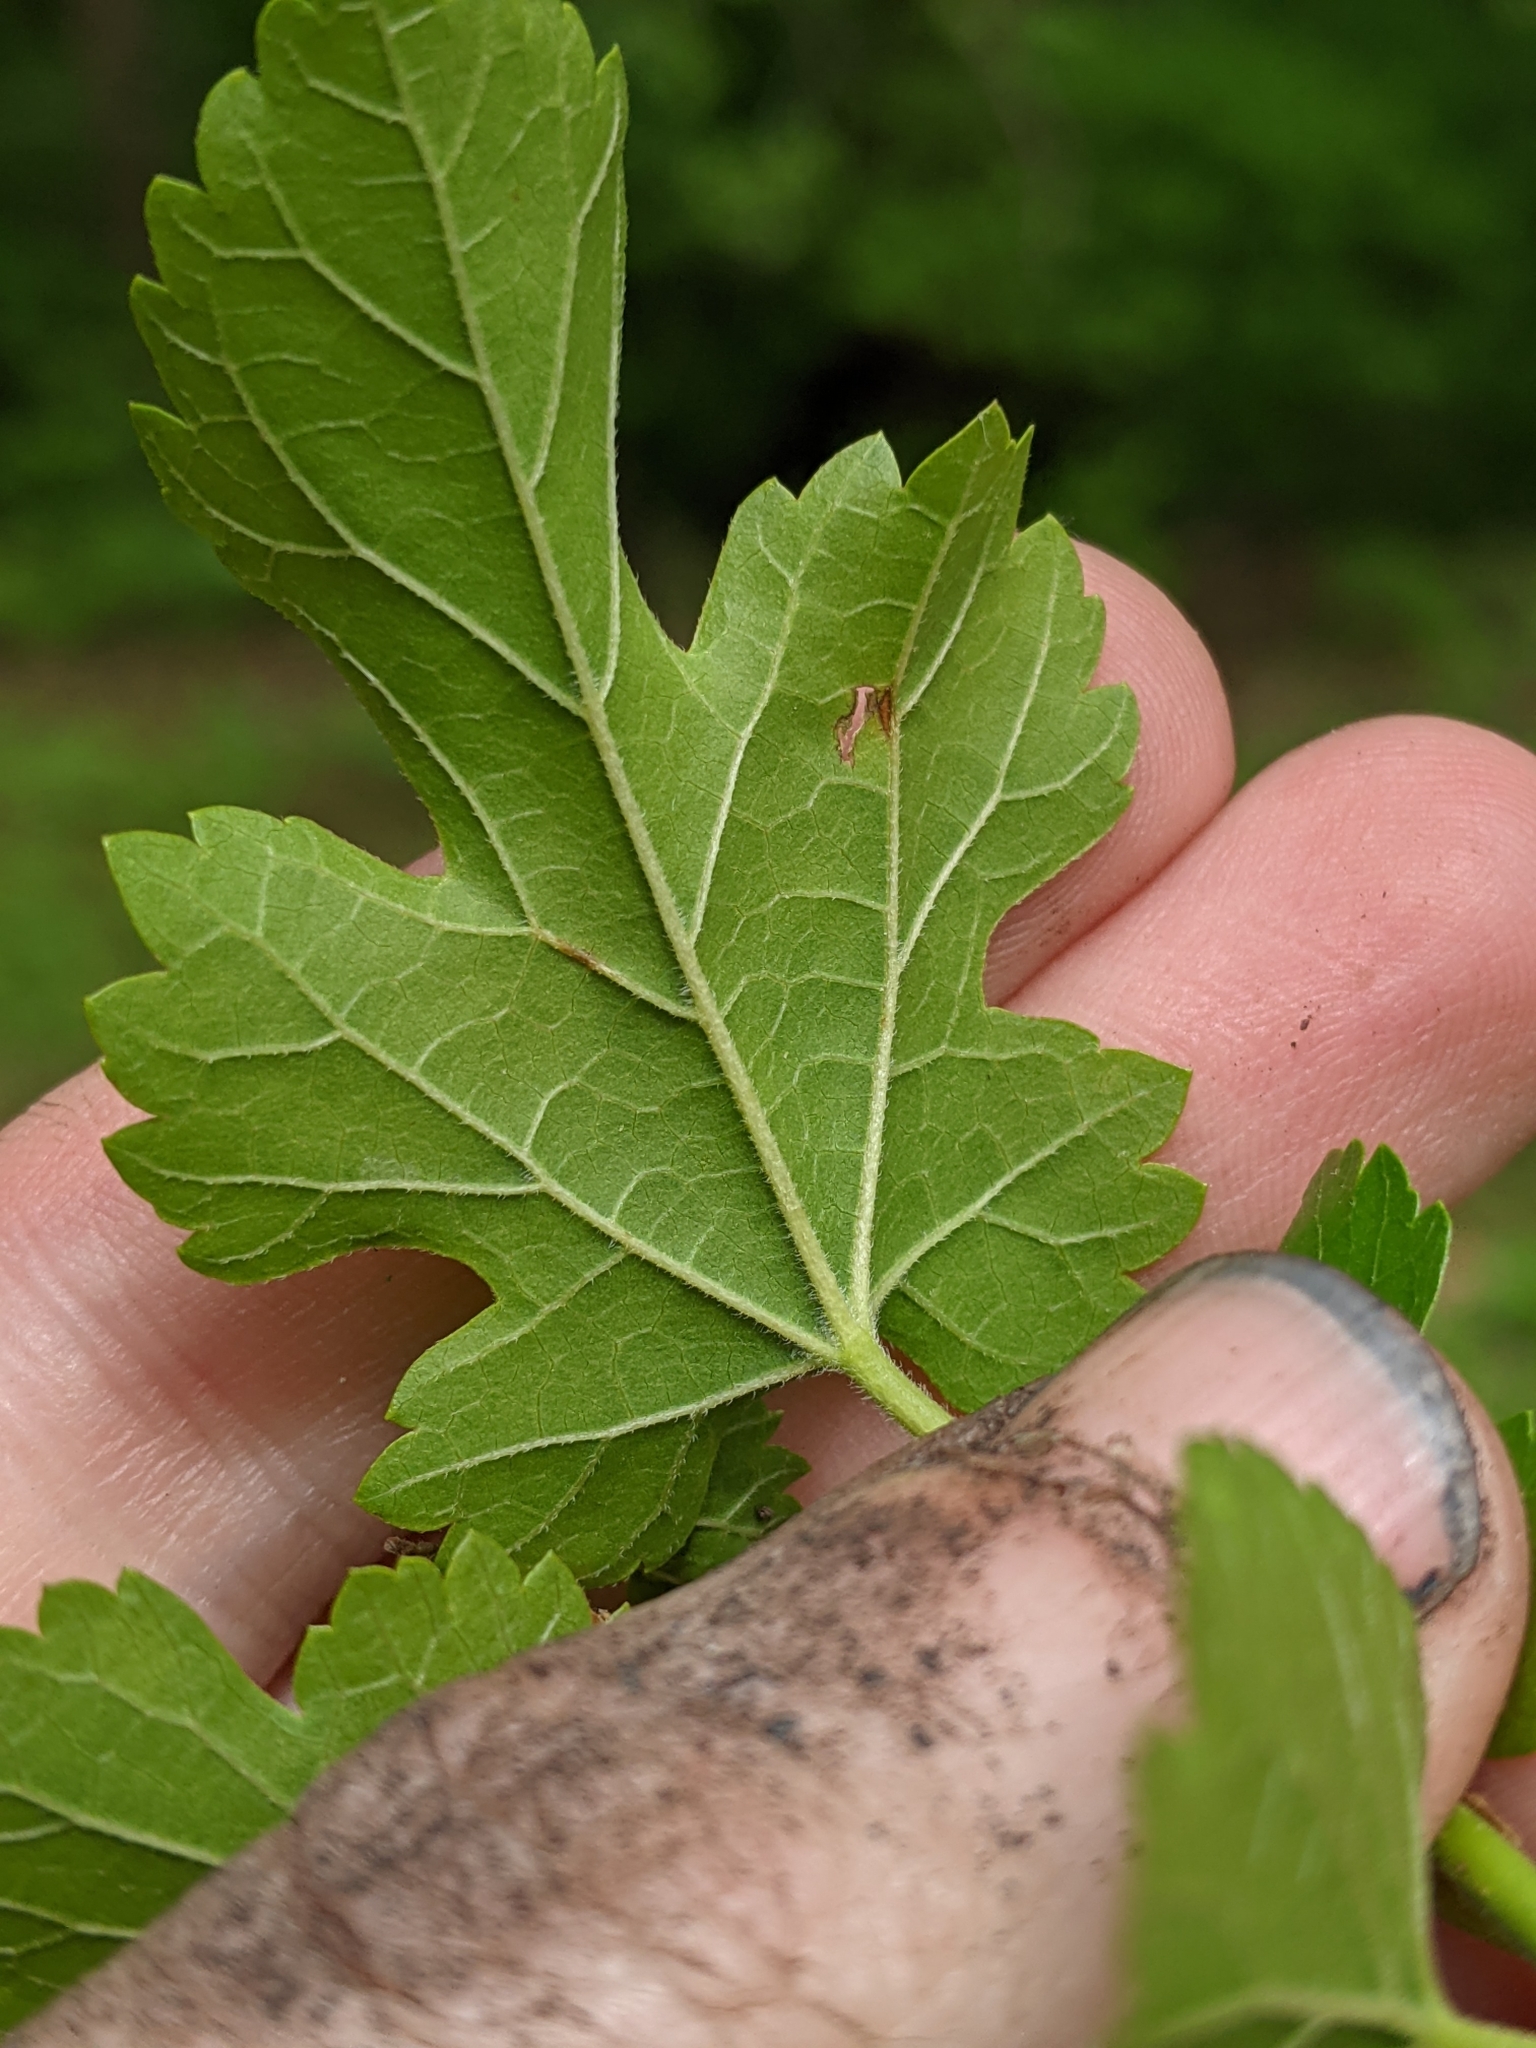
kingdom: Plantae
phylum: Tracheophyta
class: Magnoliopsida
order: Rosales
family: Moraceae
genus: Morus
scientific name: Morus alba
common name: White mulberry
